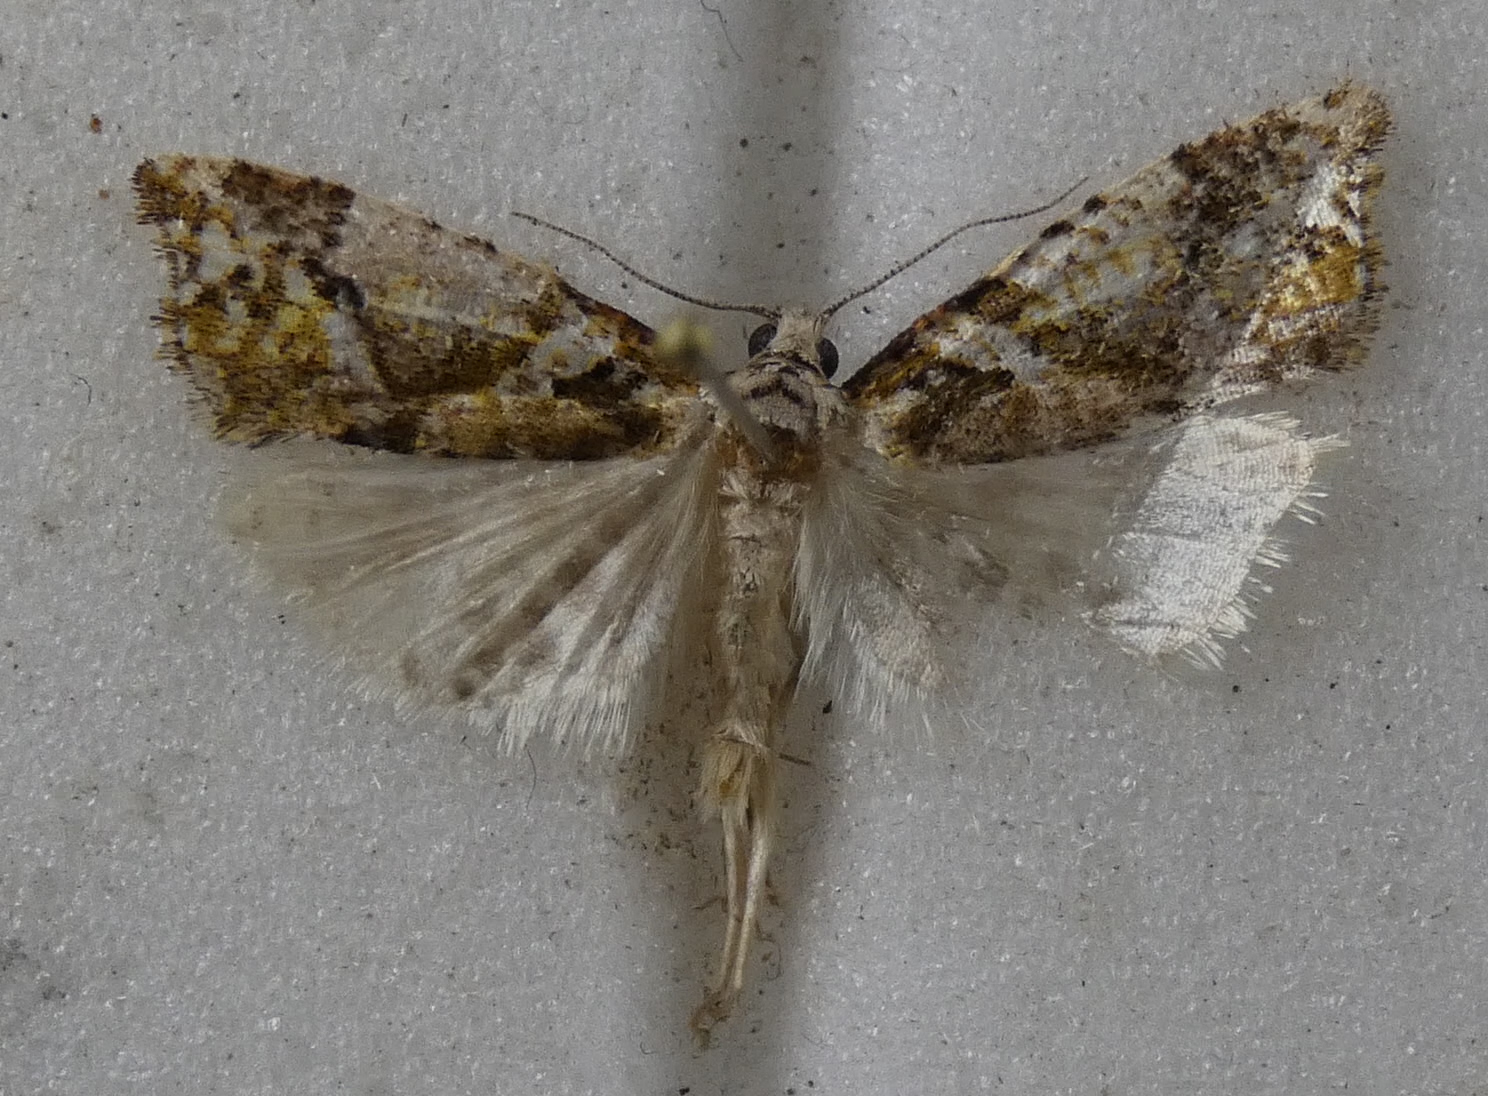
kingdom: Animalia
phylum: Arthropoda
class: Insecta
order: Lepidoptera
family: Tortricidae
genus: Pyrgotis
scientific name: Pyrgotis plagiatana
